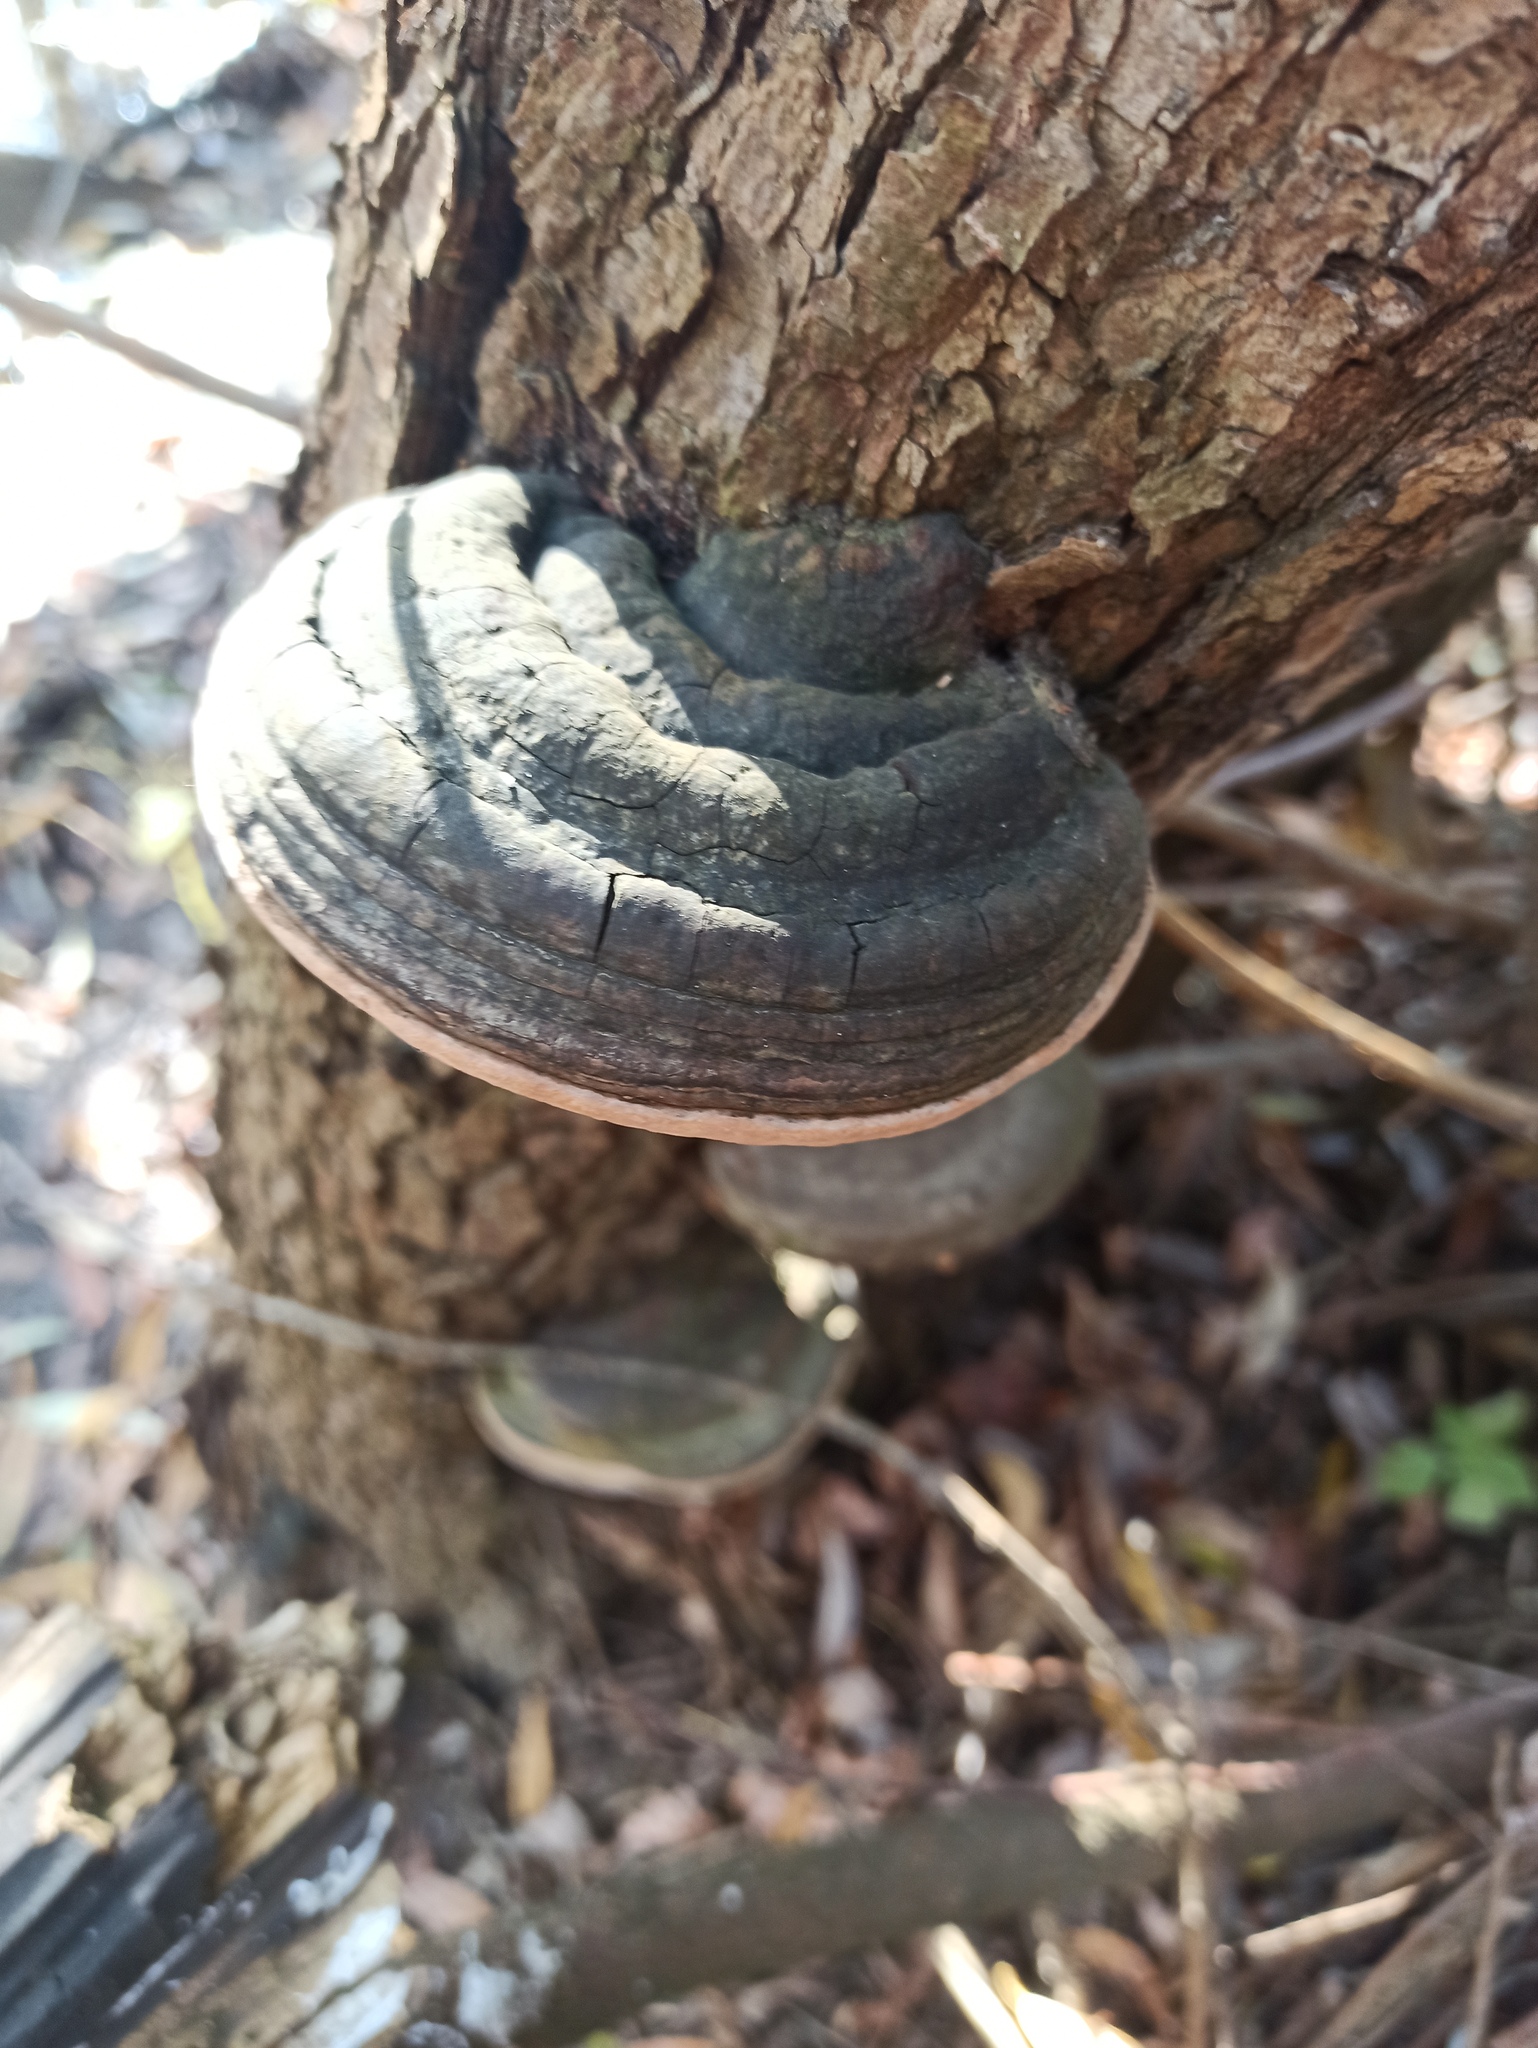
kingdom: Fungi
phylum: Basidiomycota
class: Agaricomycetes
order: Hymenochaetales
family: Hymenochaetaceae
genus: Phellinus
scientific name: Phellinus igniarius
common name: Willow bracket
